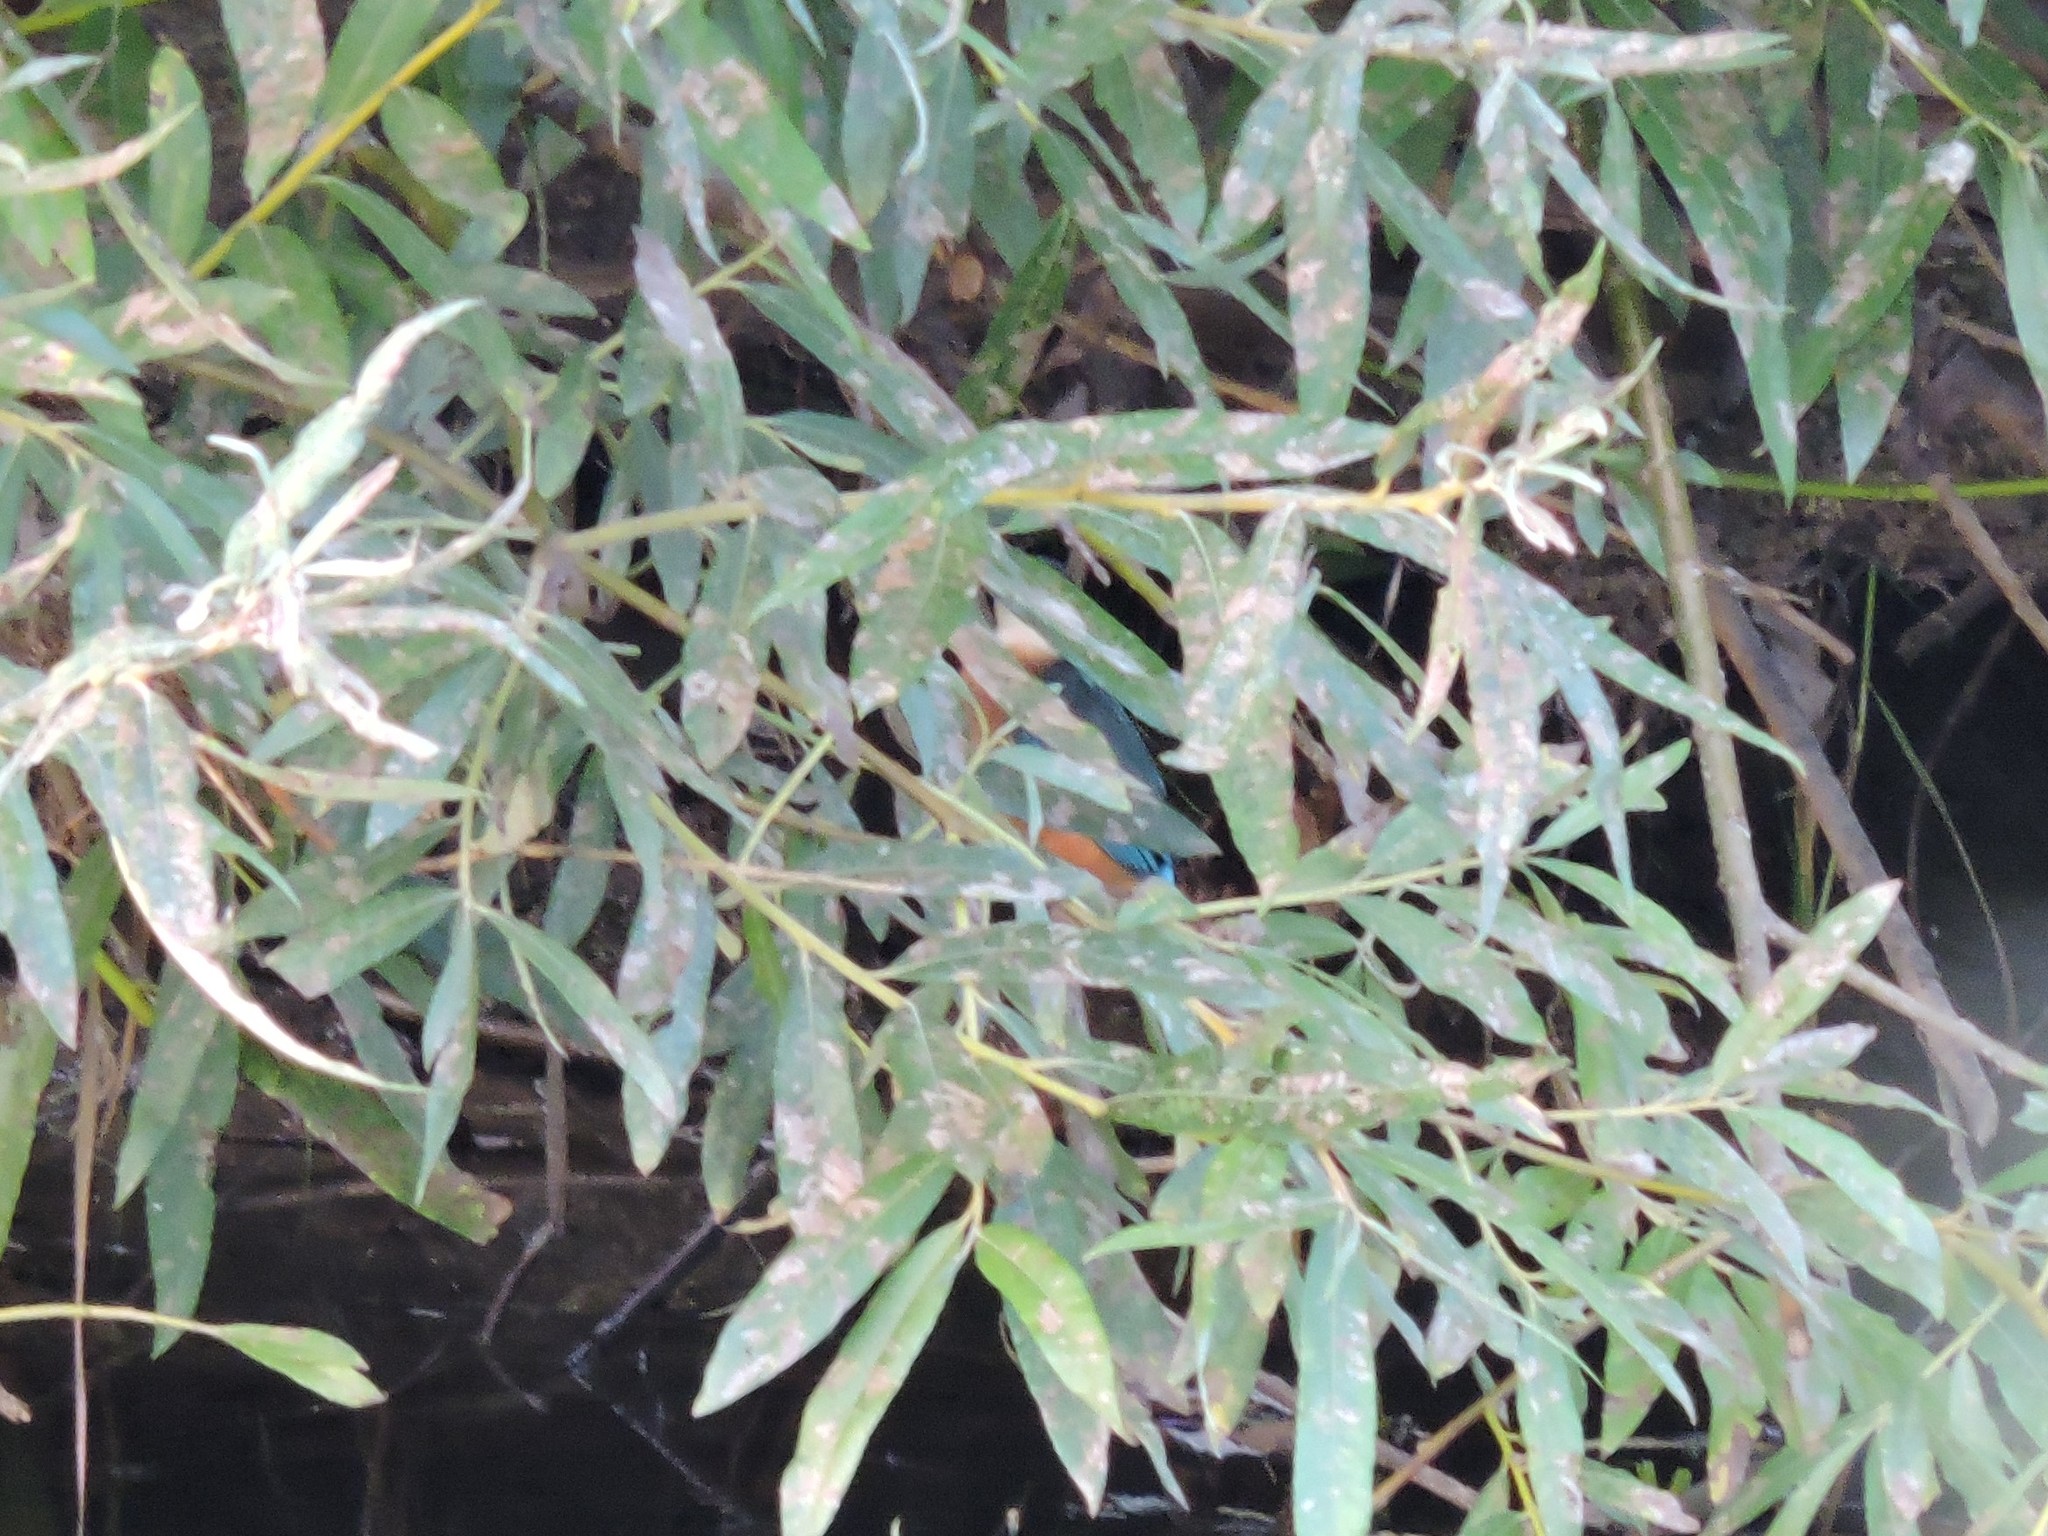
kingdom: Animalia
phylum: Chordata
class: Aves
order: Coraciiformes
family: Alcedinidae
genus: Alcedo
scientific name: Alcedo atthis
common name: Common kingfisher
